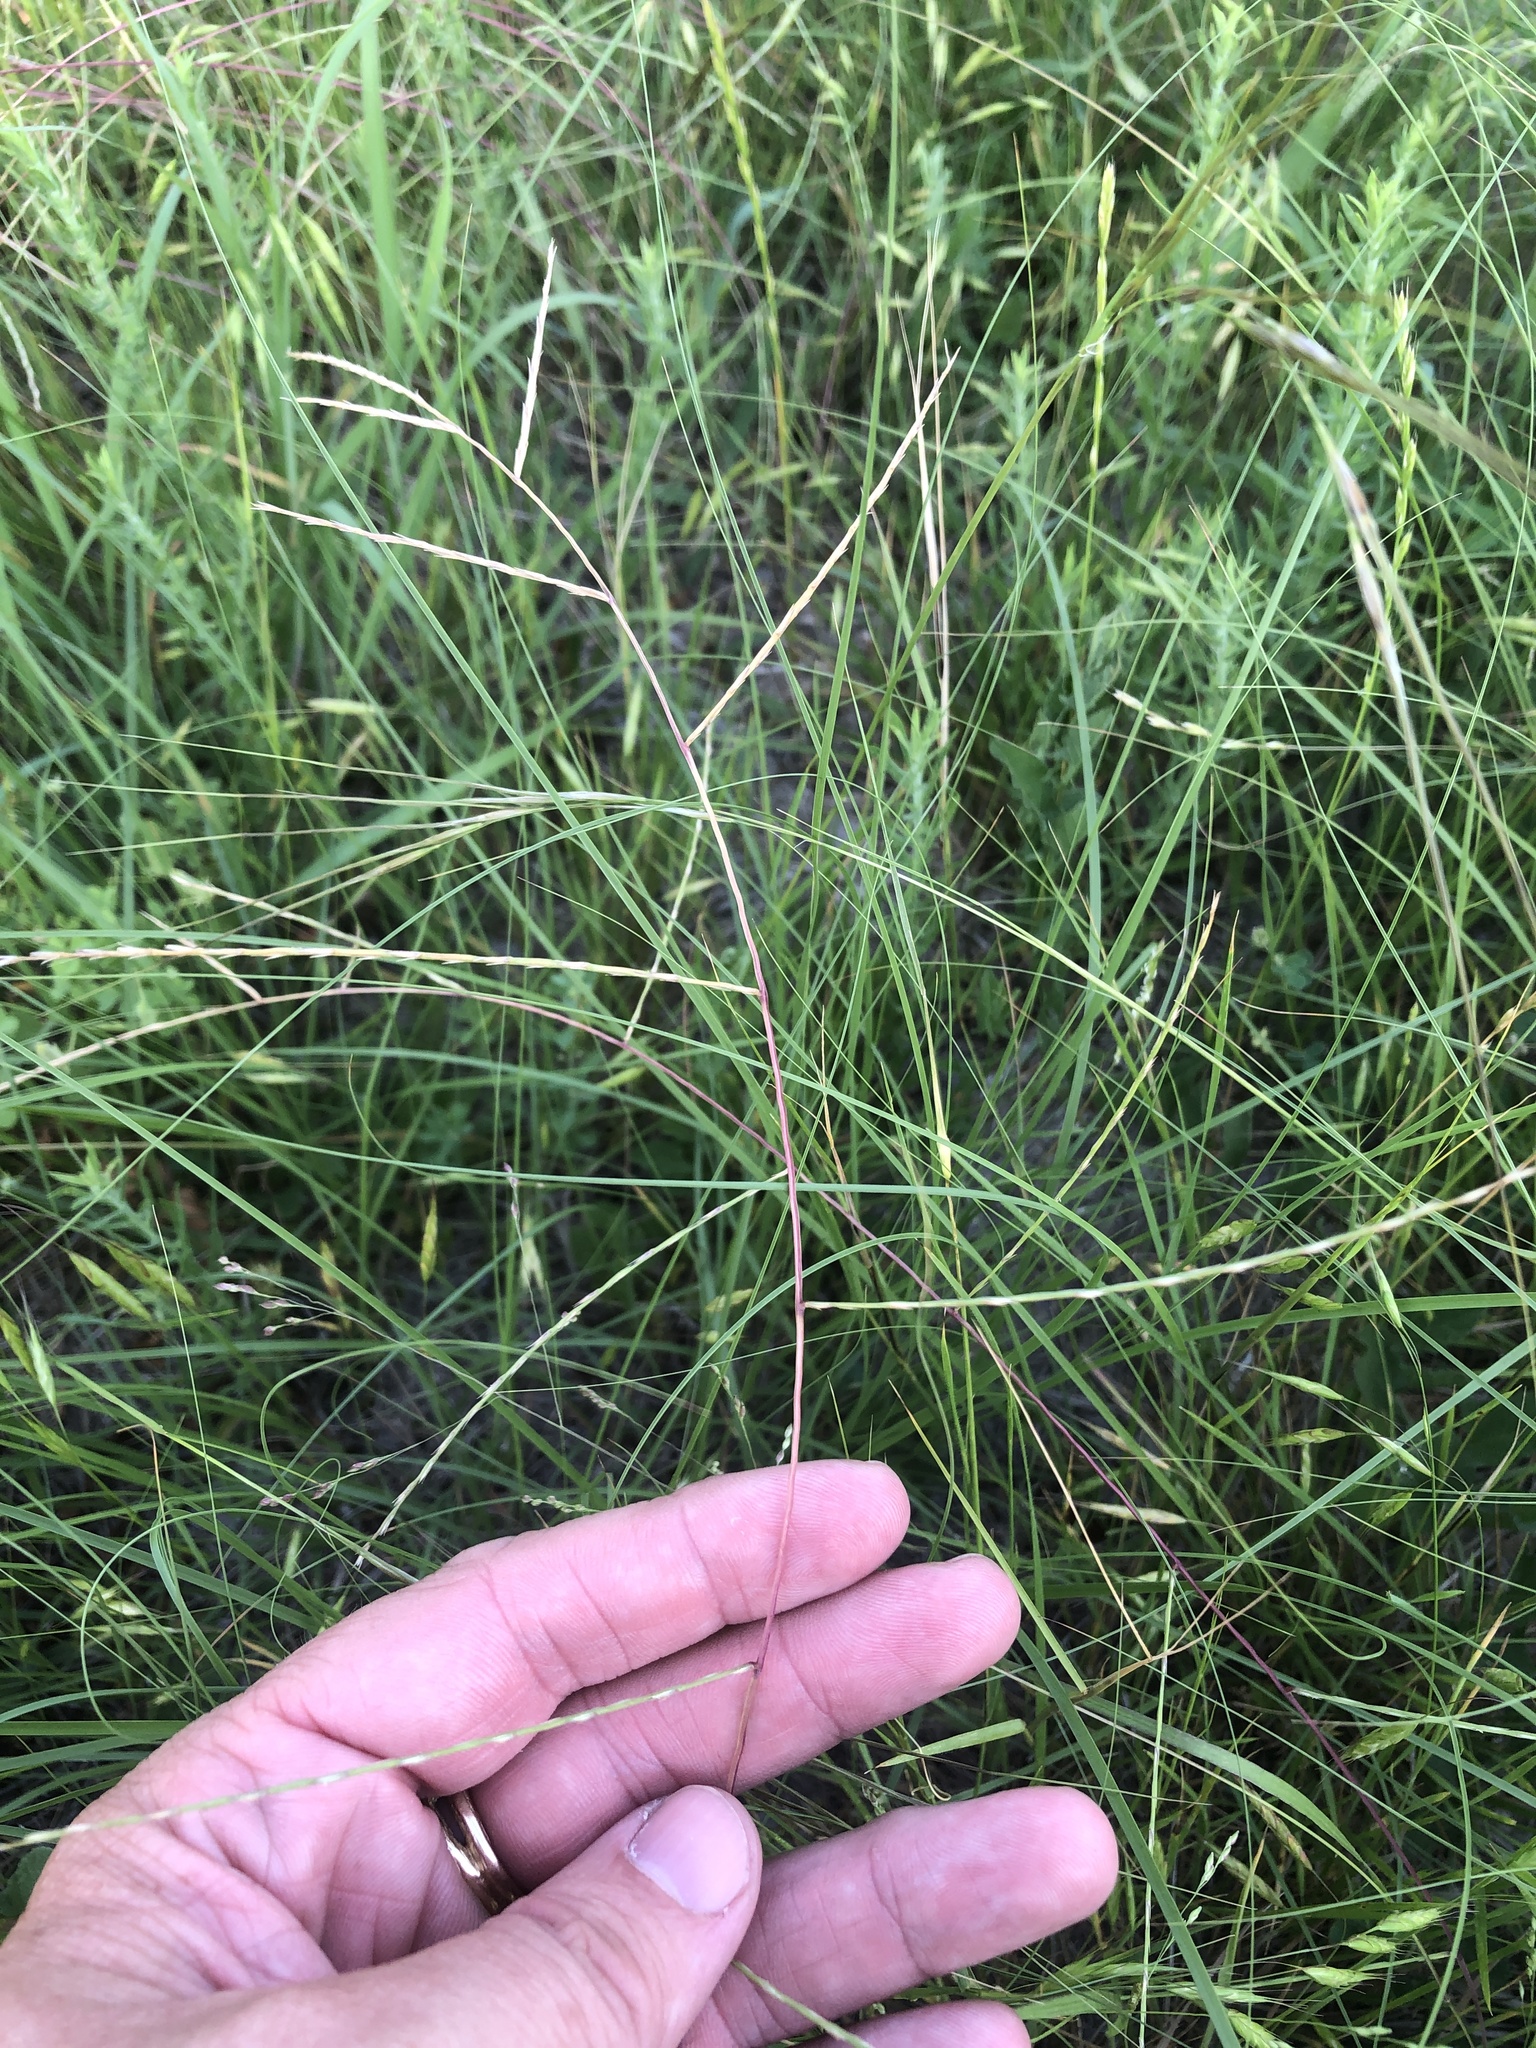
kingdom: Plantae
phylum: Tracheophyta
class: Liliopsida
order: Poales
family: Poaceae
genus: Muhlenbergia
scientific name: Muhlenbergia paniculata
